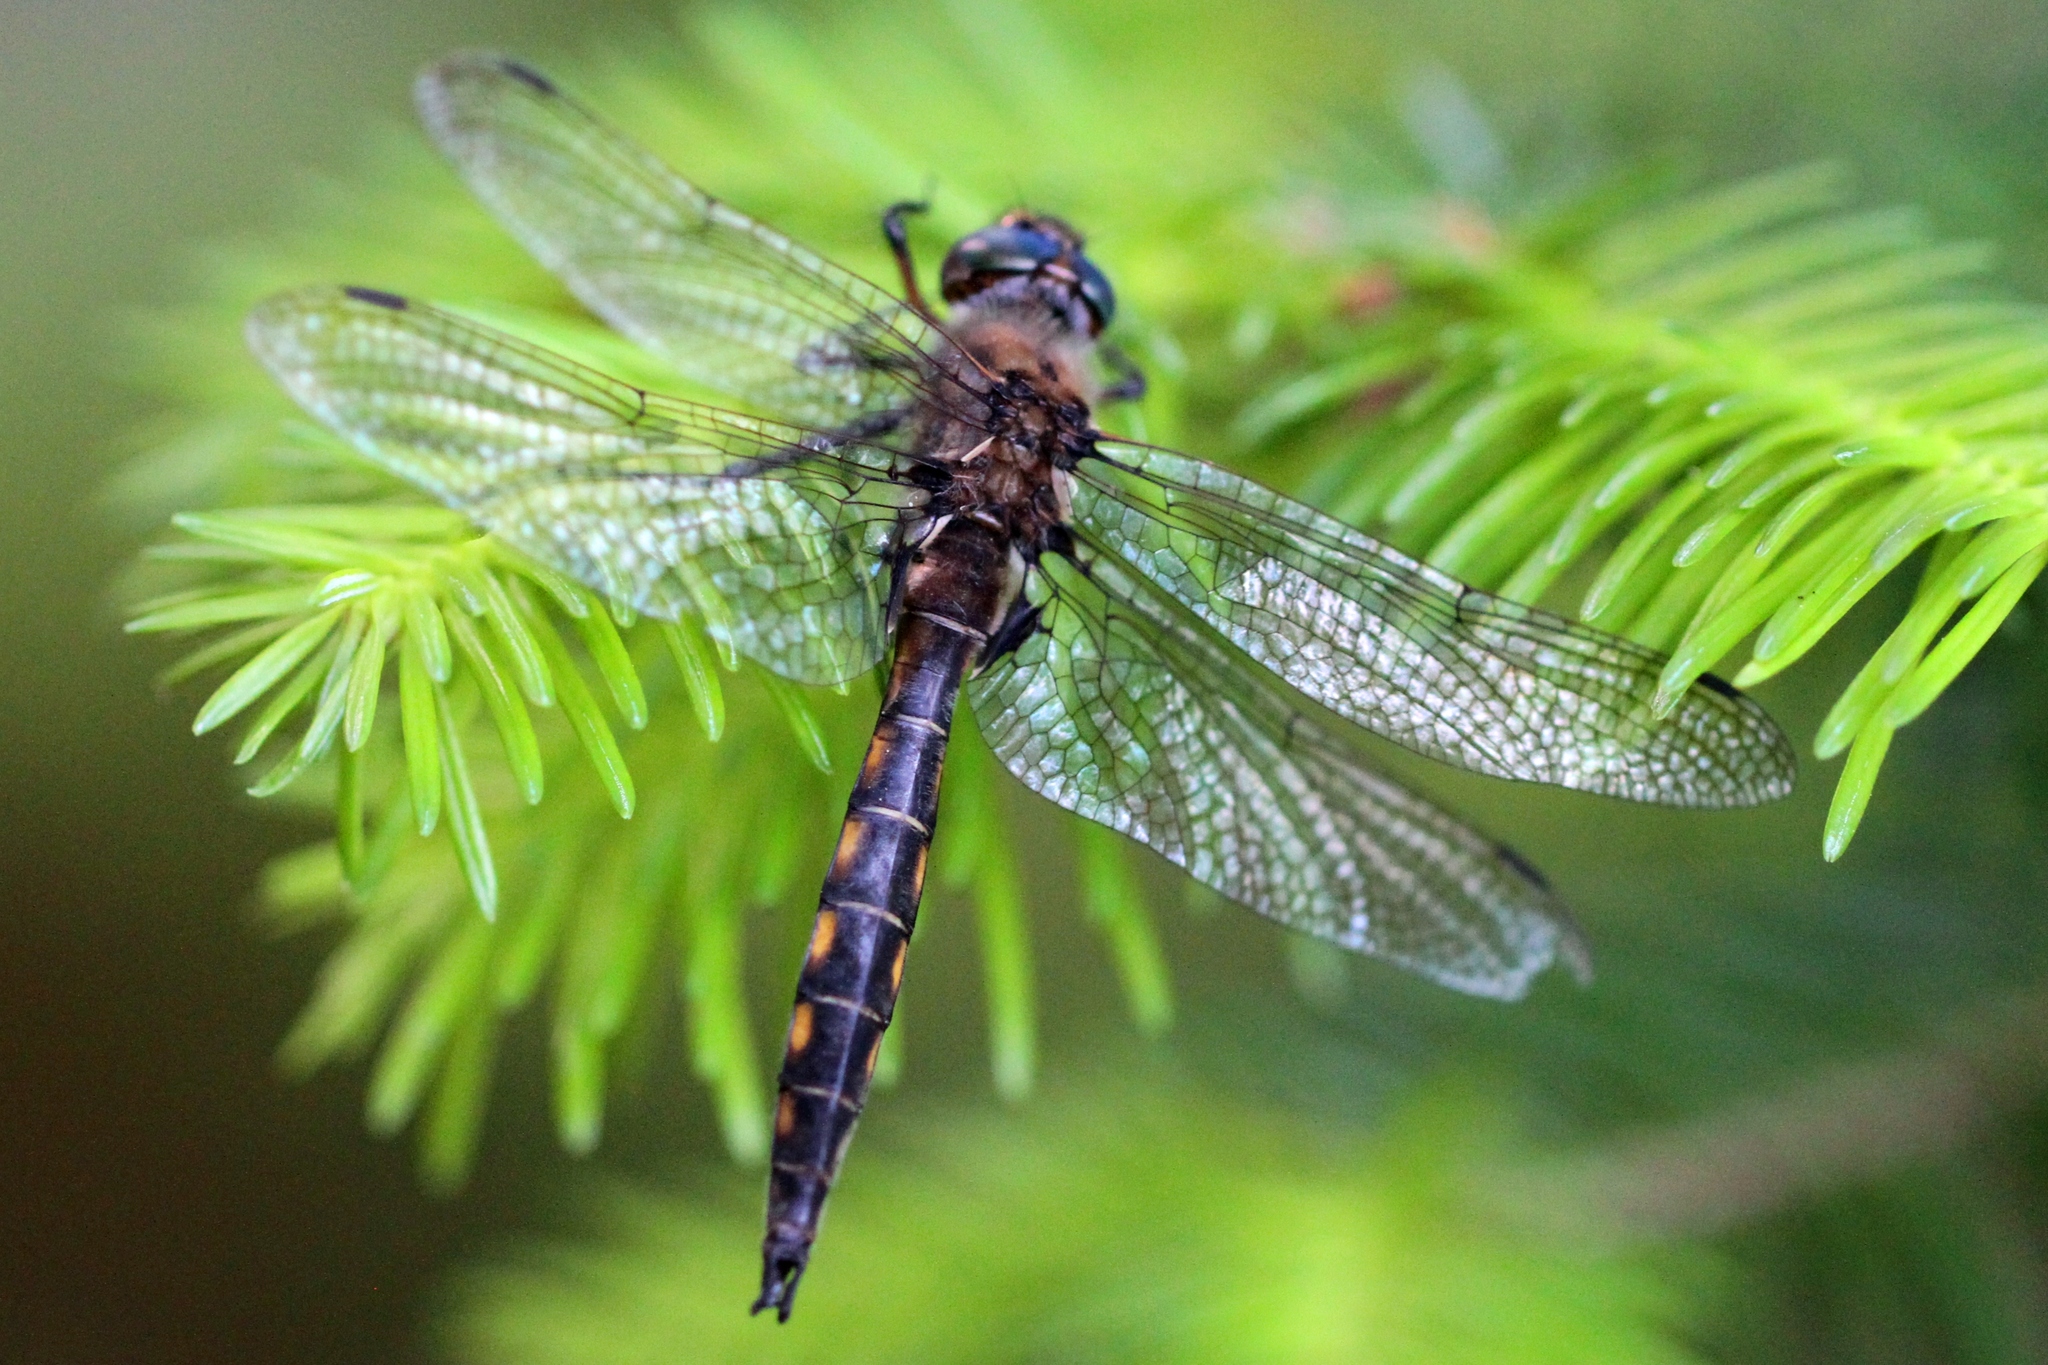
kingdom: Animalia
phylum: Arthropoda
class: Insecta
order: Odonata
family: Corduliidae
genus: Epitheca
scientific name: Epitheca canis
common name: Beaverpond baskettail
